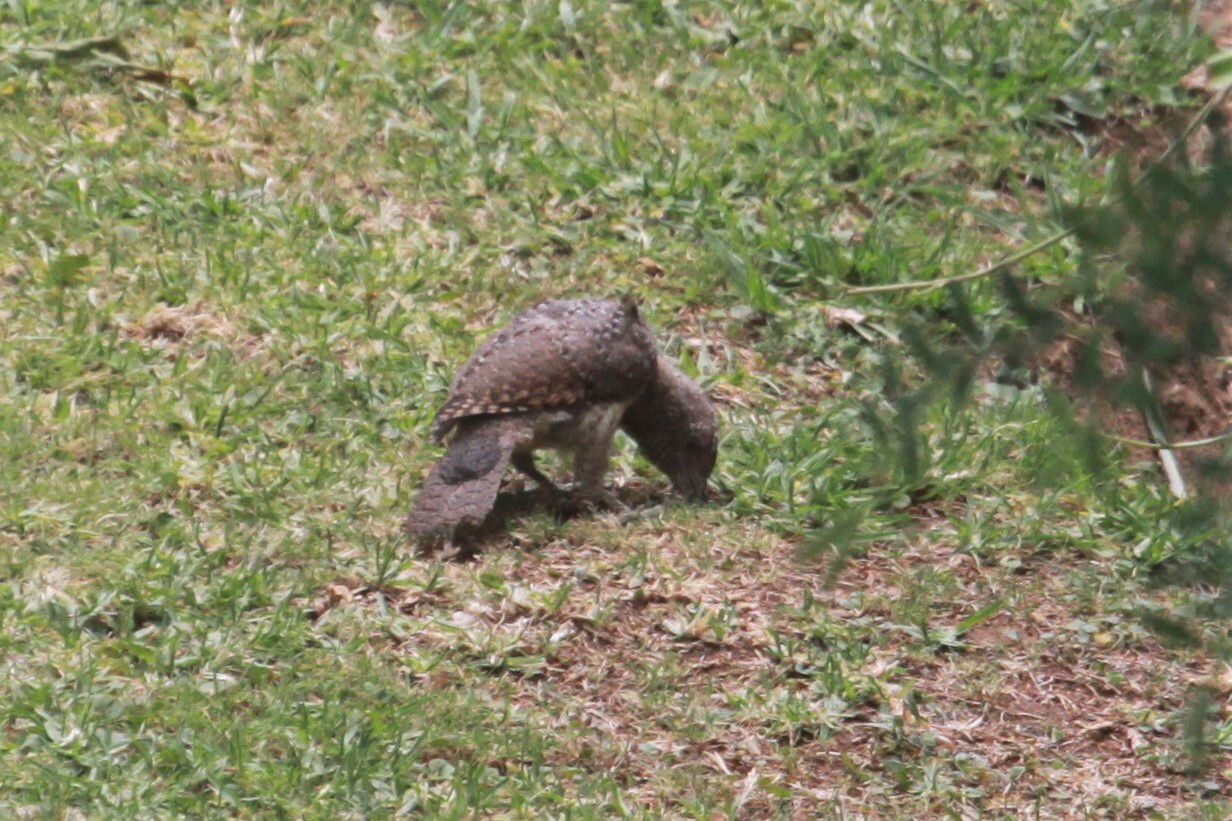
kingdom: Animalia
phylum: Chordata
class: Aves
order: Piciformes
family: Picidae
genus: Jynx
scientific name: Jynx ruficollis
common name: Red-throated wryneck
